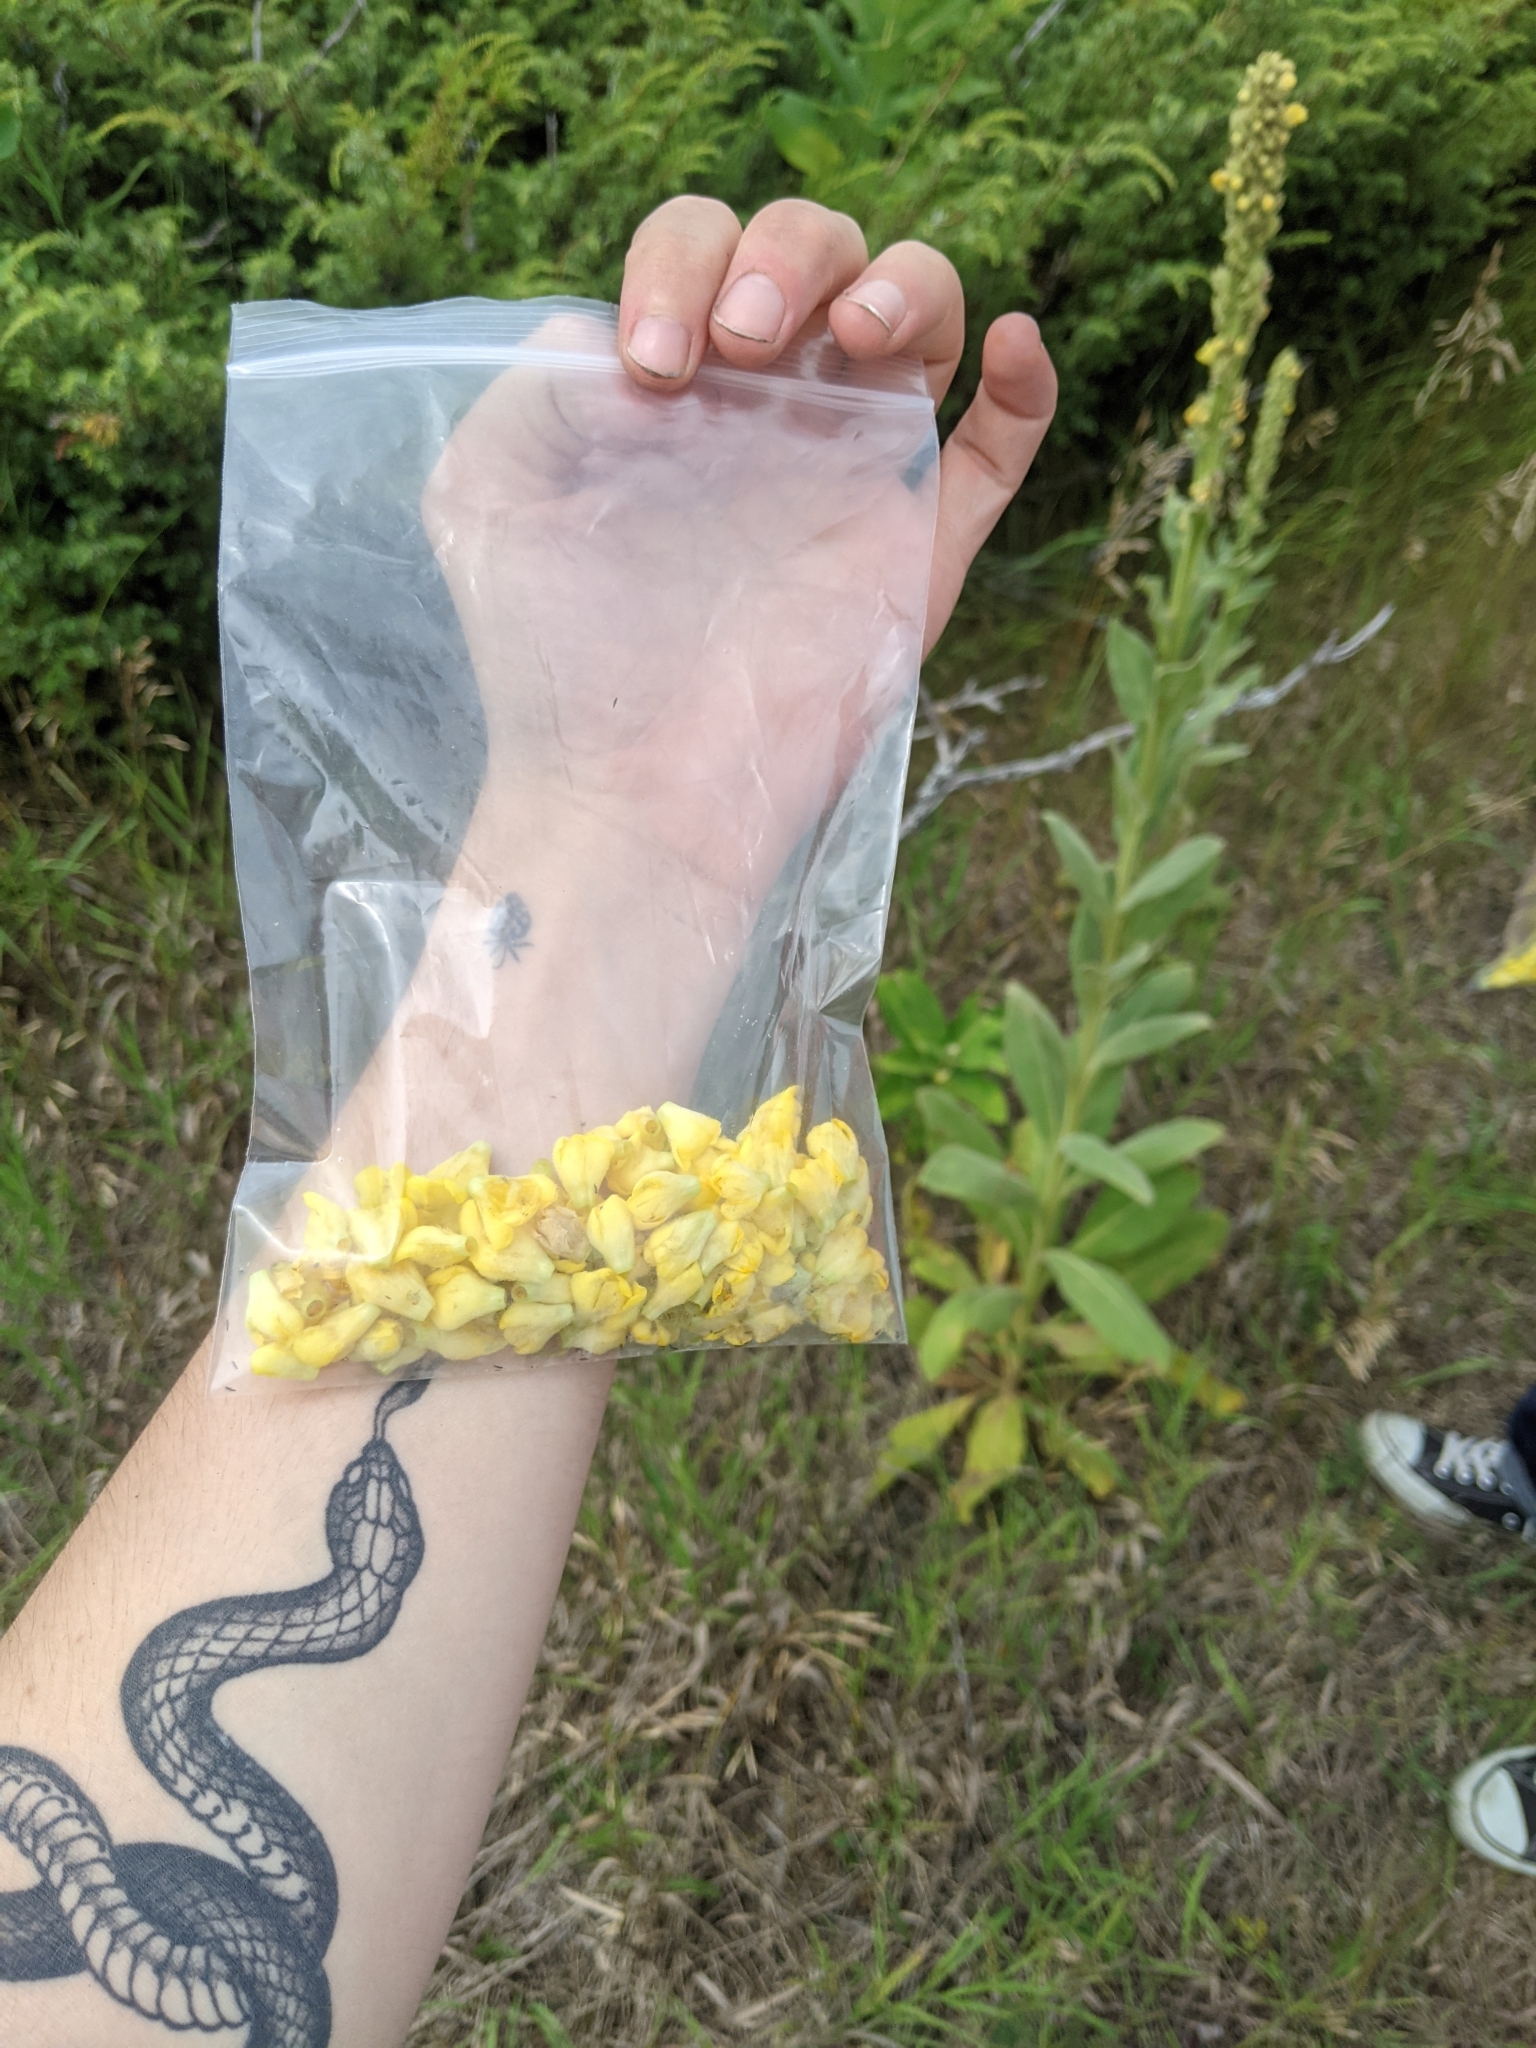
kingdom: Plantae
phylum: Tracheophyta
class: Magnoliopsida
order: Lamiales
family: Scrophulariaceae
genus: Verbascum
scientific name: Verbascum thapsus
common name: Common mullein
